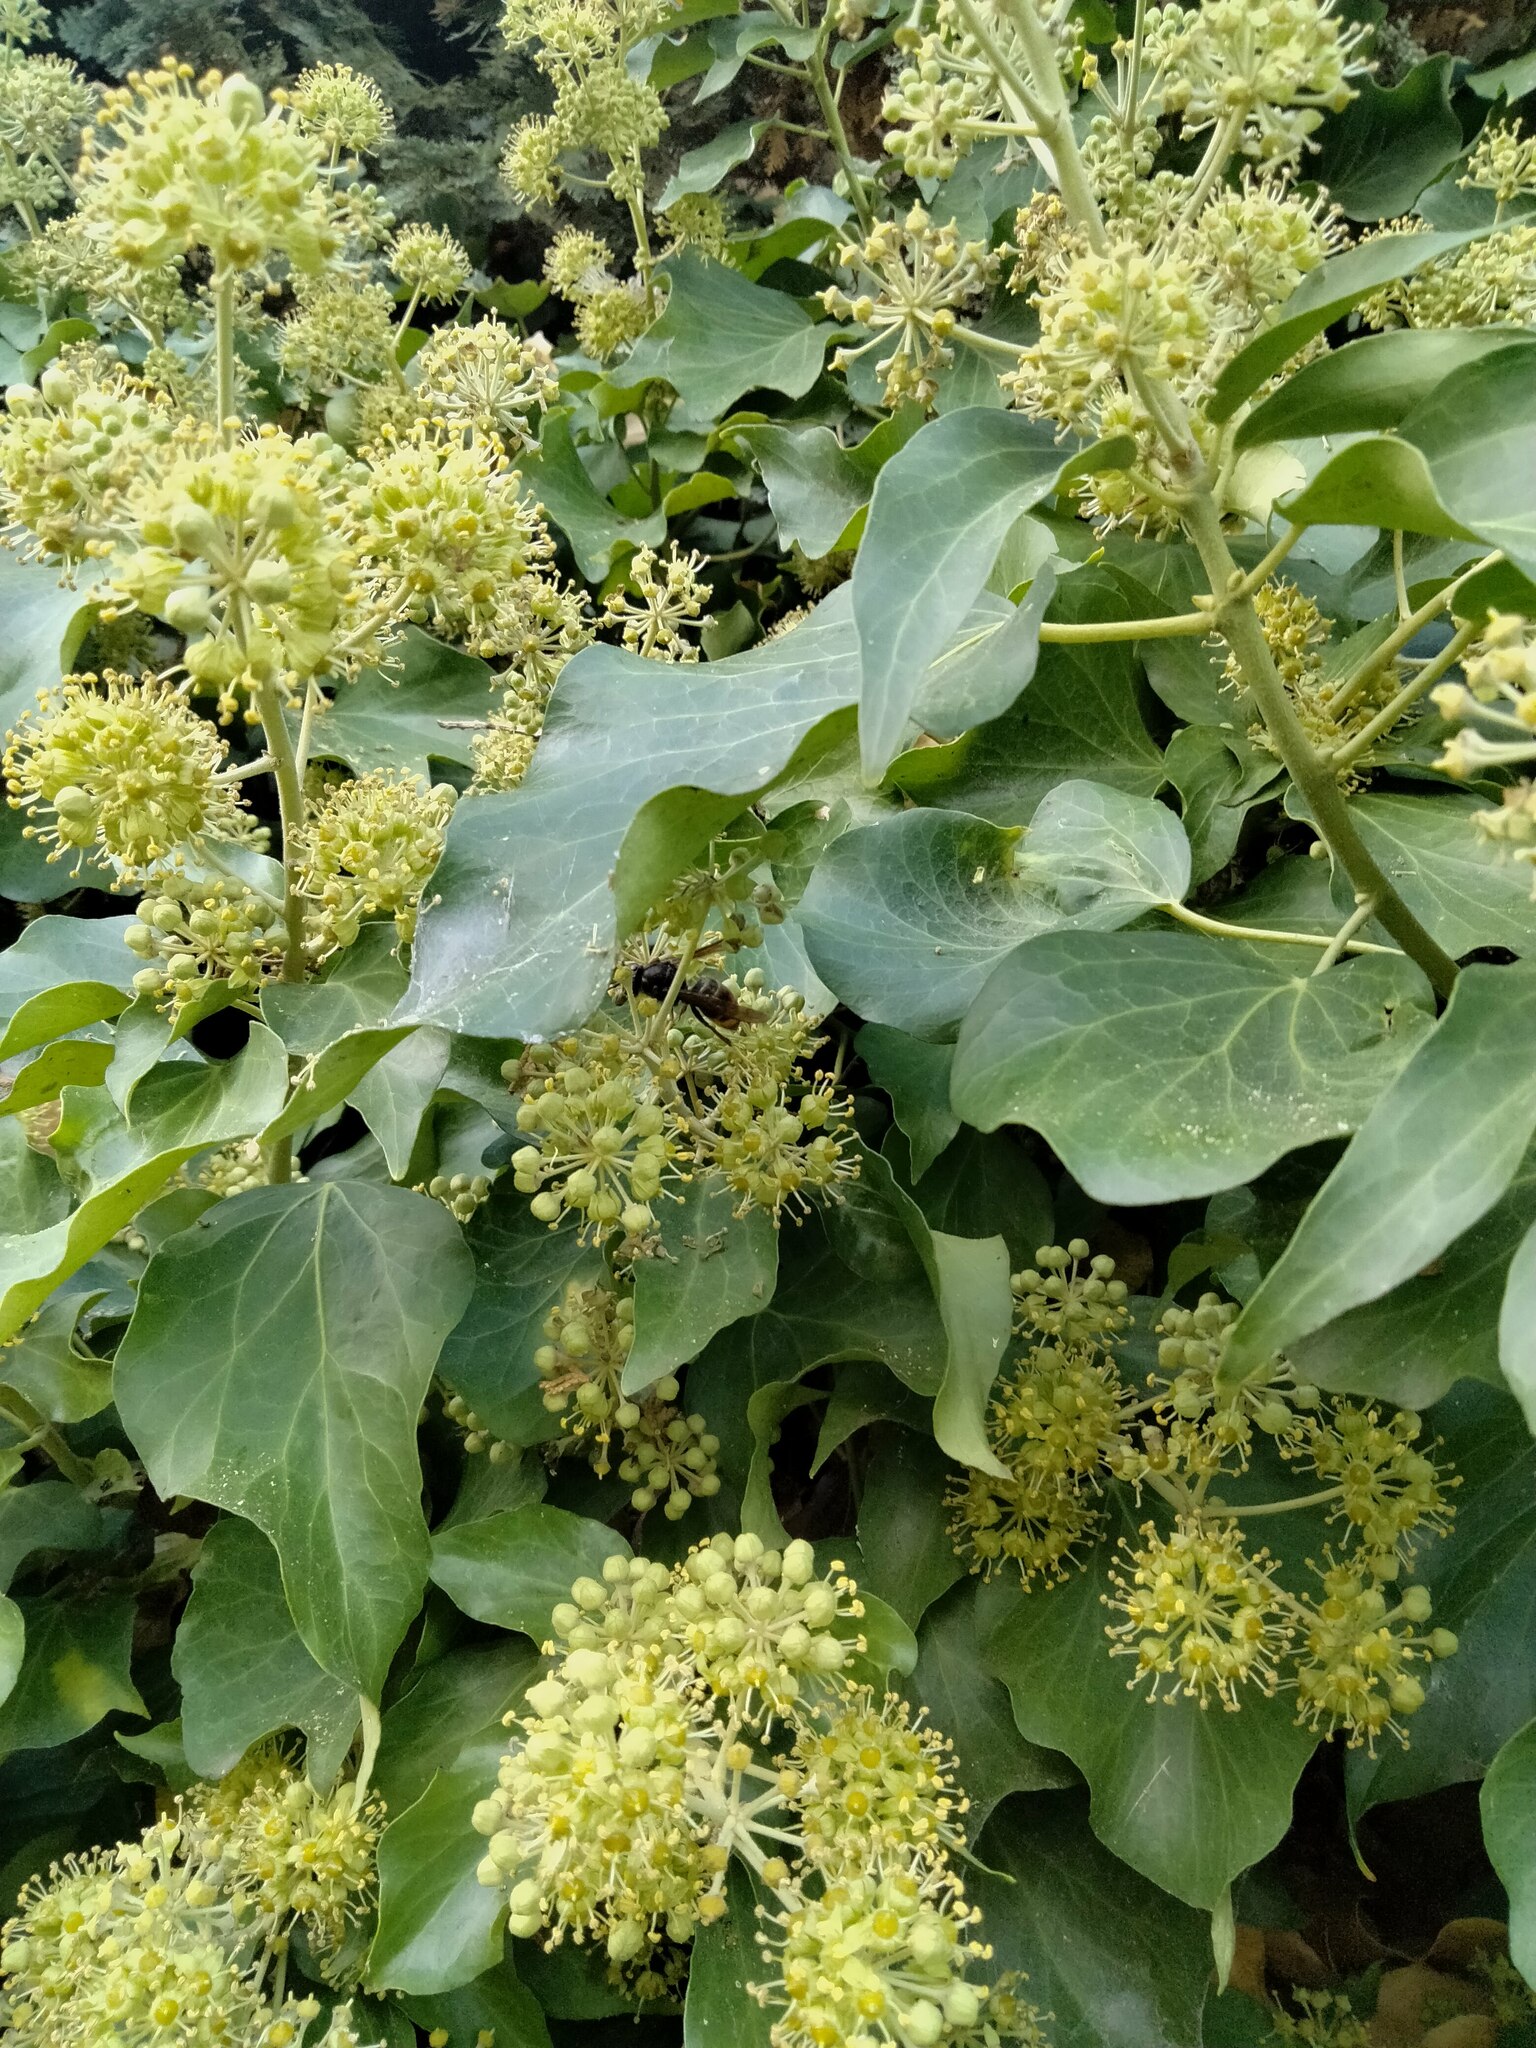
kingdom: Animalia
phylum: Arthropoda
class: Insecta
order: Hymenoptera
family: Vespidae
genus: Vespa
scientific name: Vespa velutina
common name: Asian hornet
